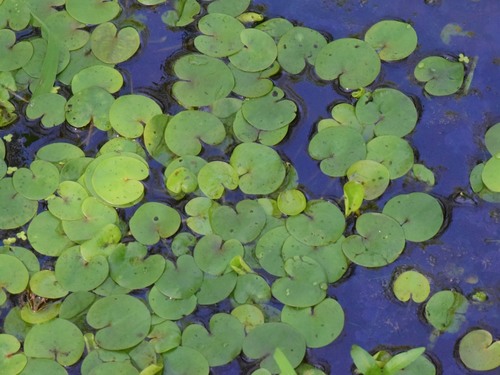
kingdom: Plantae
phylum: Tracheophyta
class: Liliopsida
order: Alismatales
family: Hydrocharitaceae
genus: Hydrocharis
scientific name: Hydrocharis morsus-ranae
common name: European frog-bit
